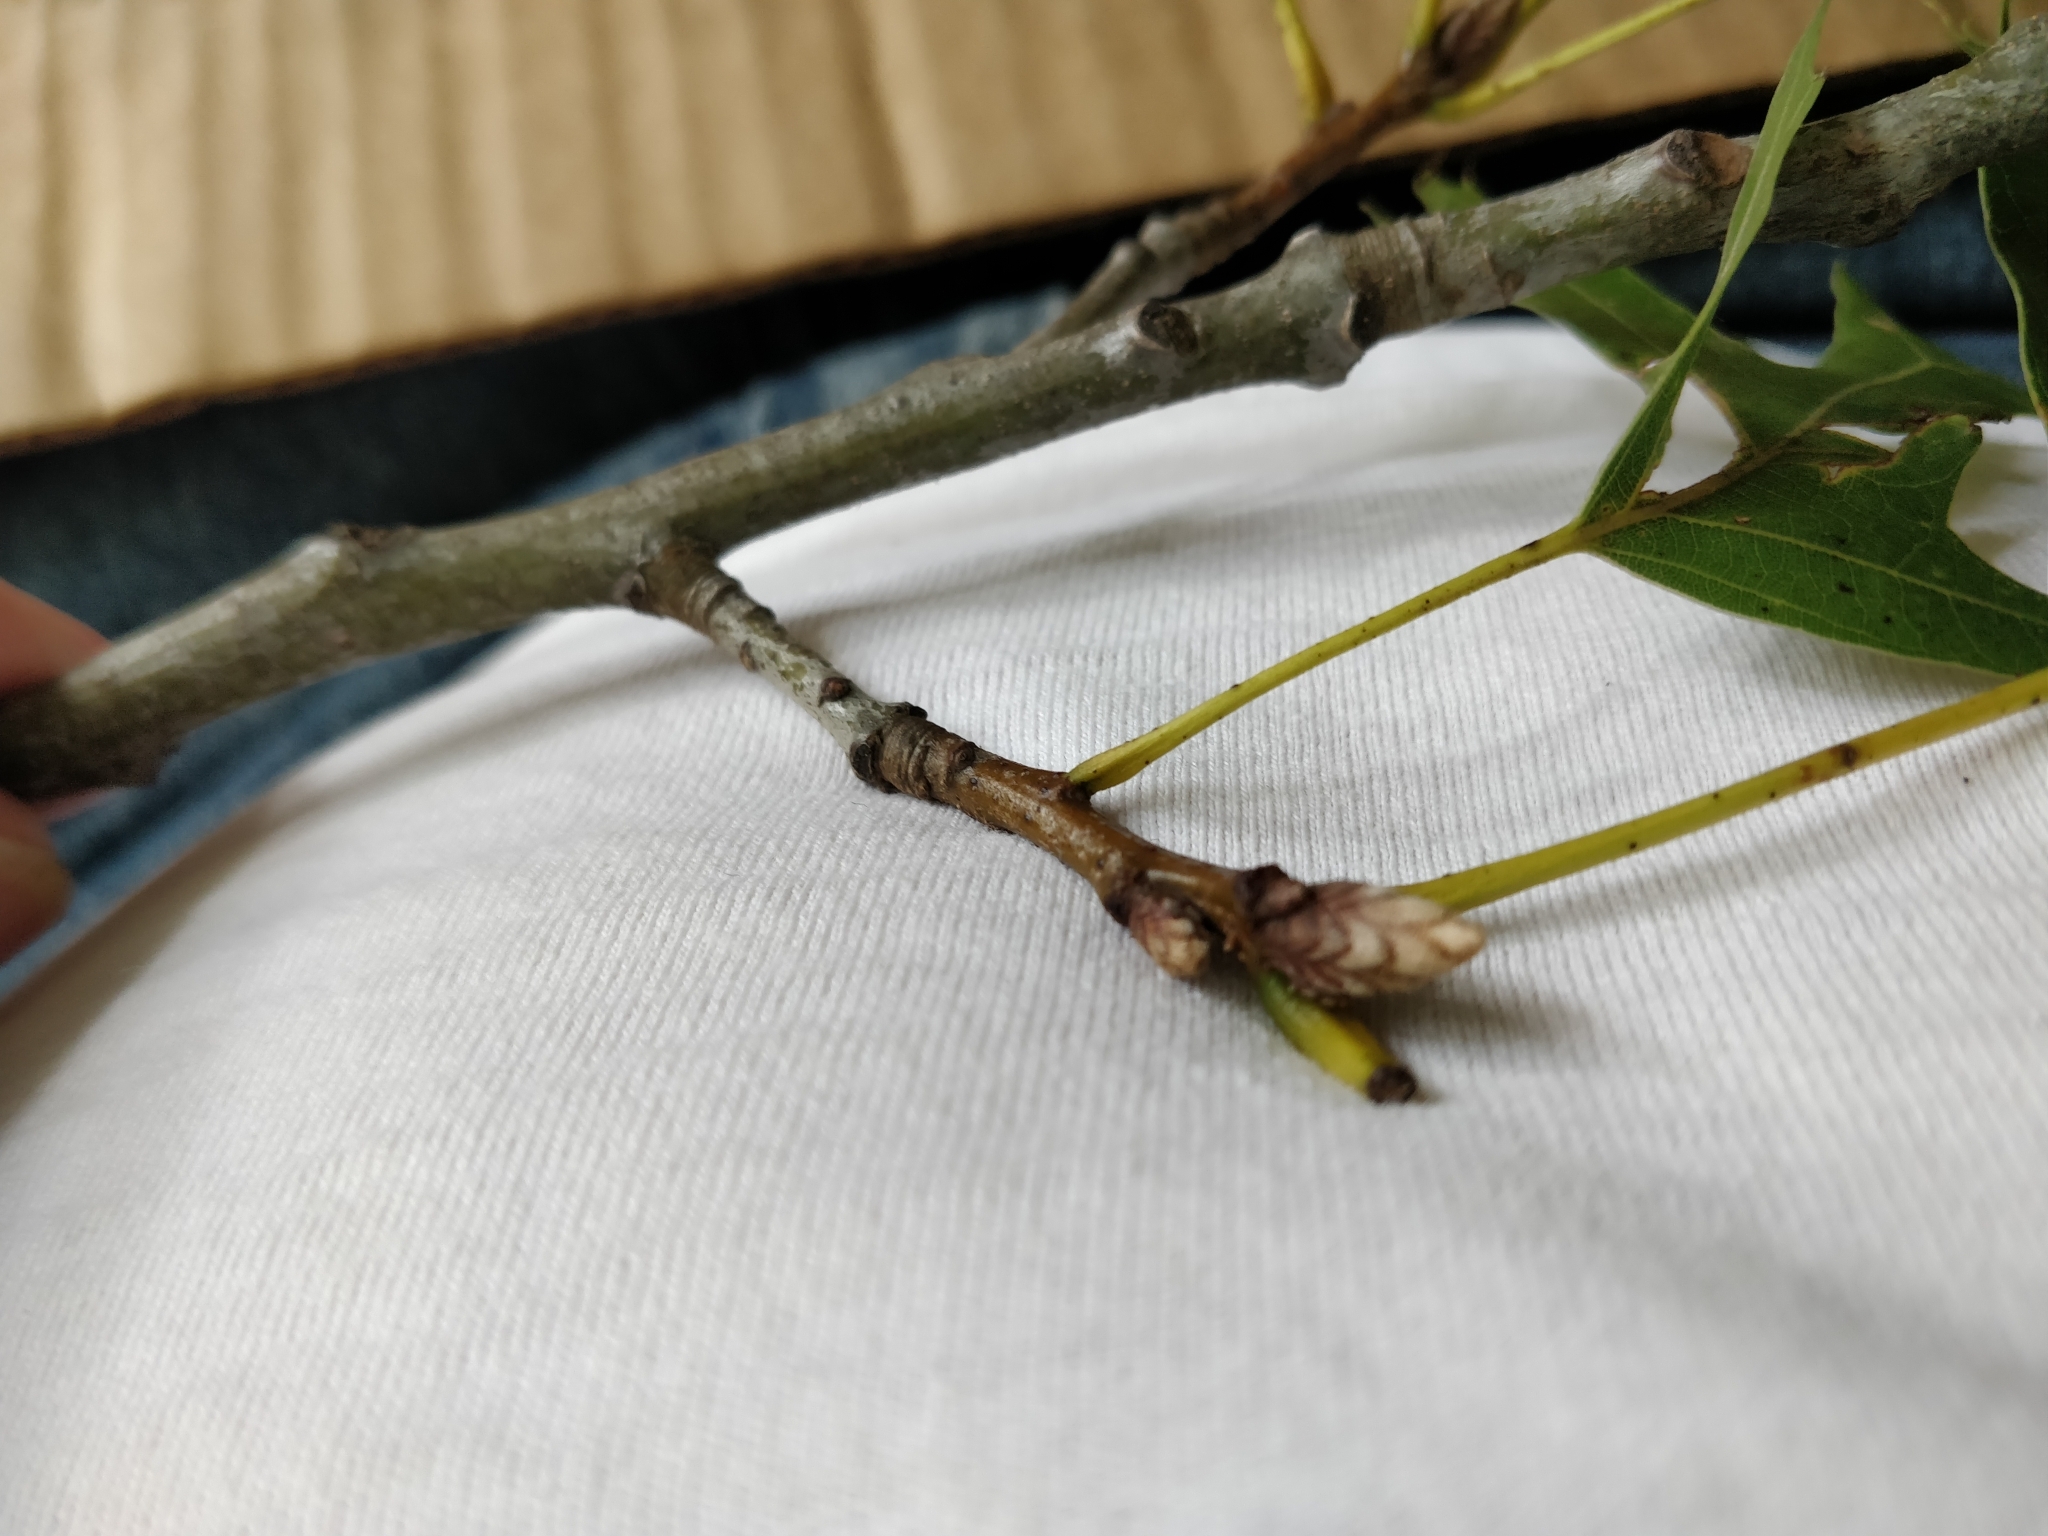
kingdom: Plantae
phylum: Tracheophyta
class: Magnoliopsida
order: Fagales
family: Fagaceae
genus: Quercus
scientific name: Quercus velutina
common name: Black oak
